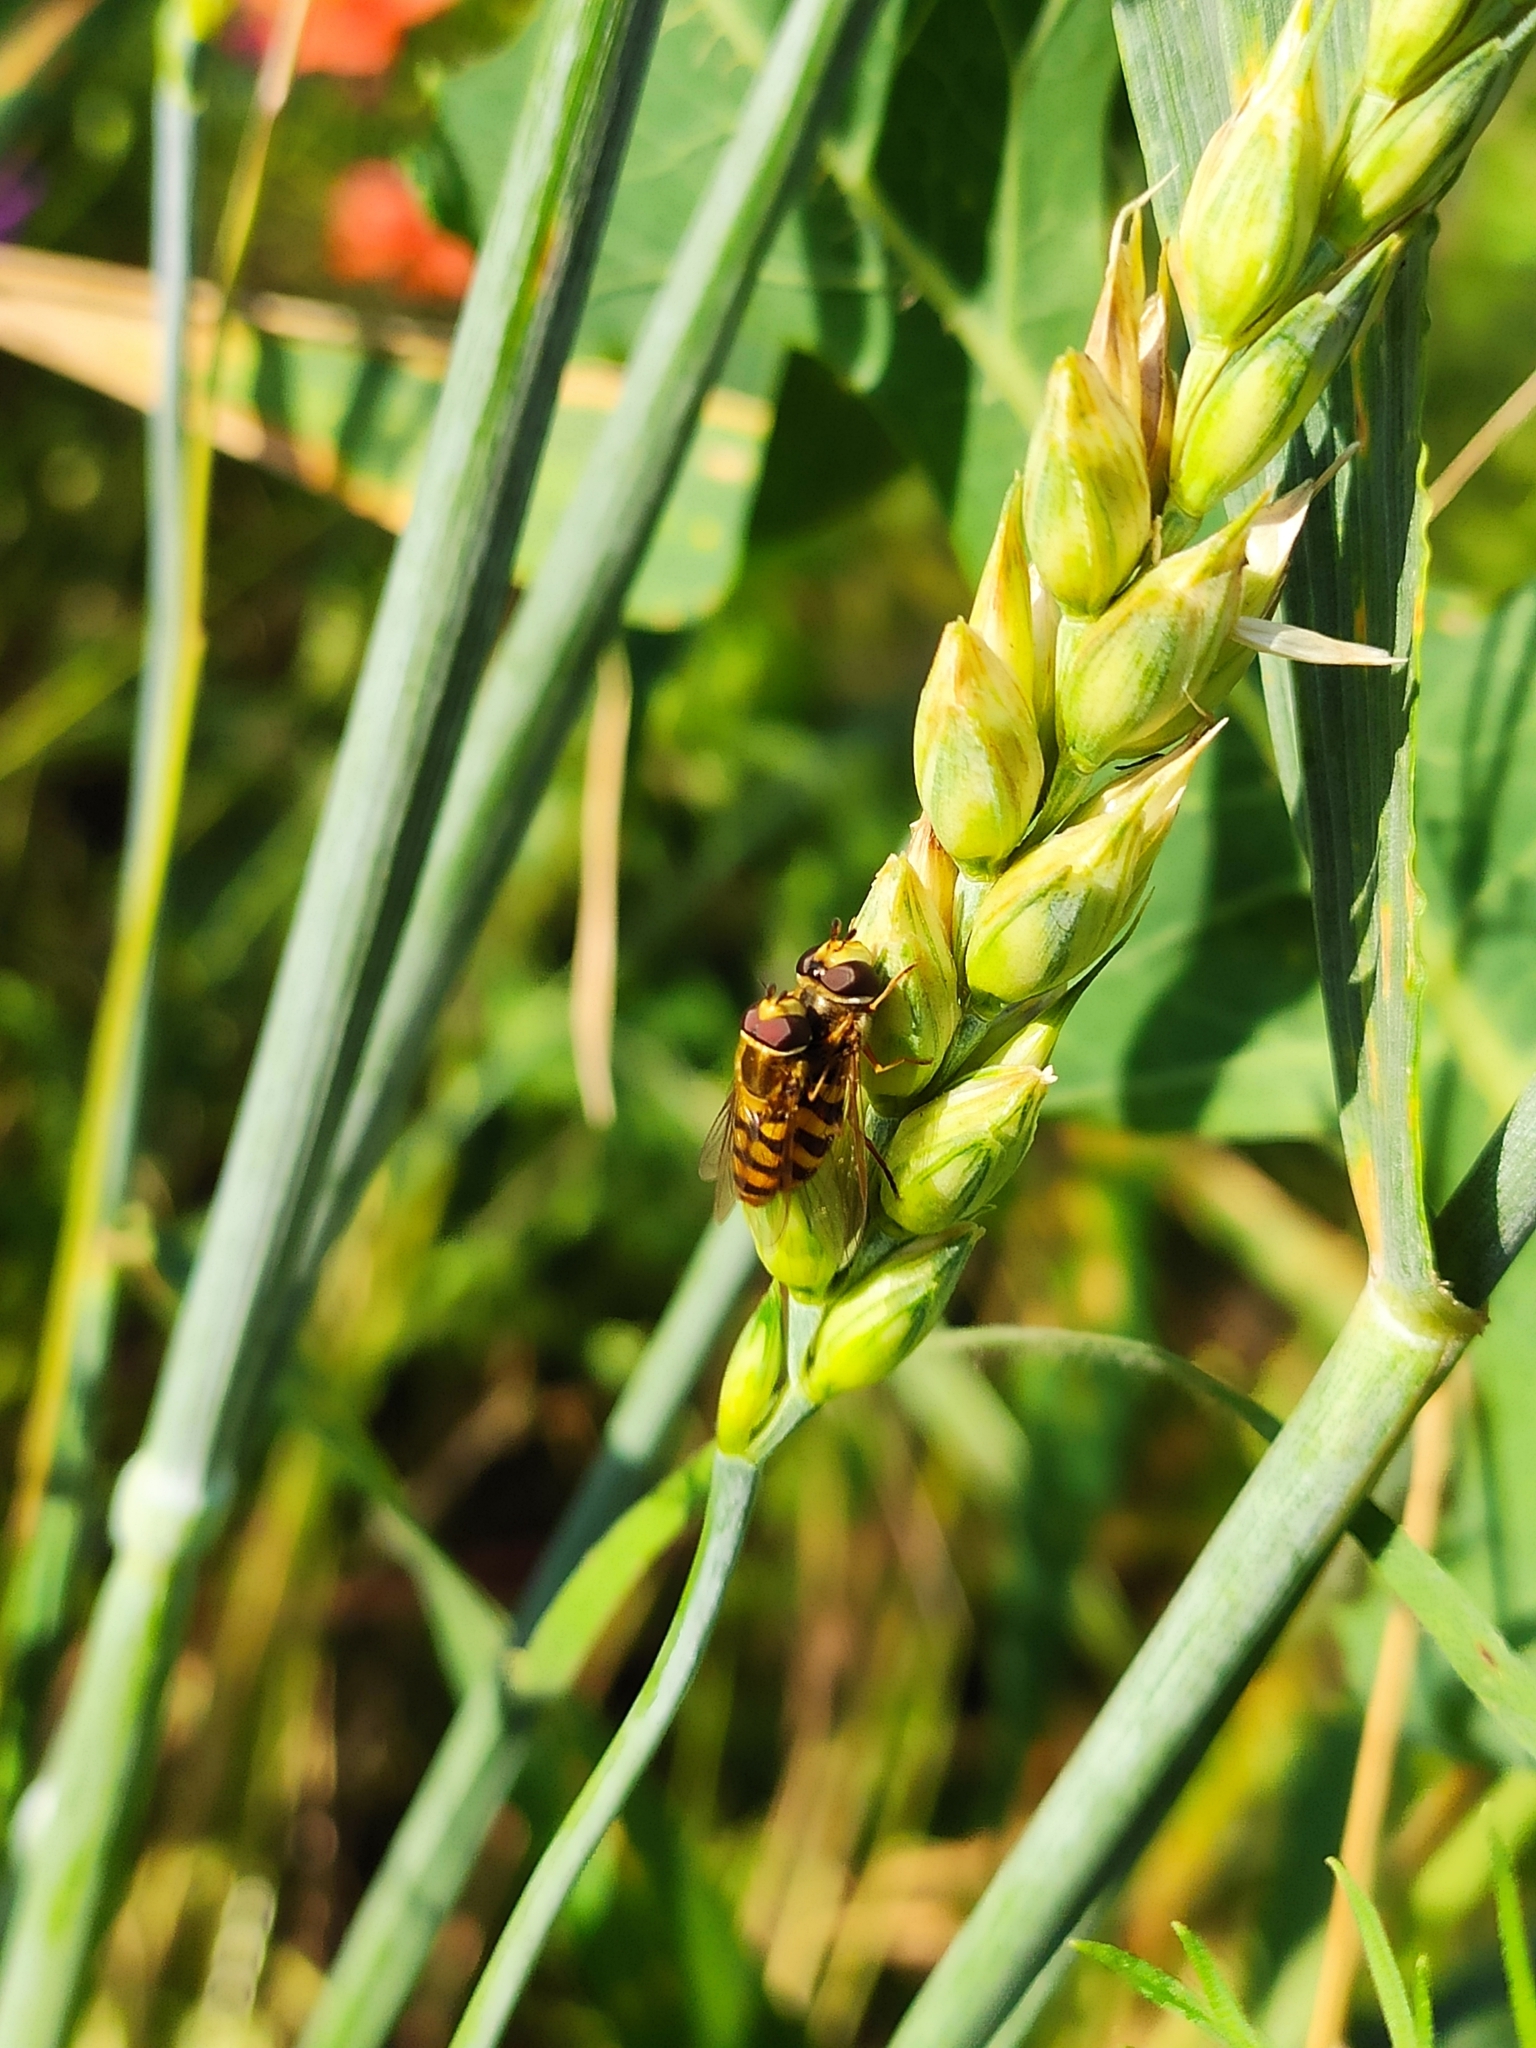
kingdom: Animalia
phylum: Arthropoda
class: Insecta
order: Diptera
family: Syrphidae
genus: Eupeodes
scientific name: Eupeodes corollae
